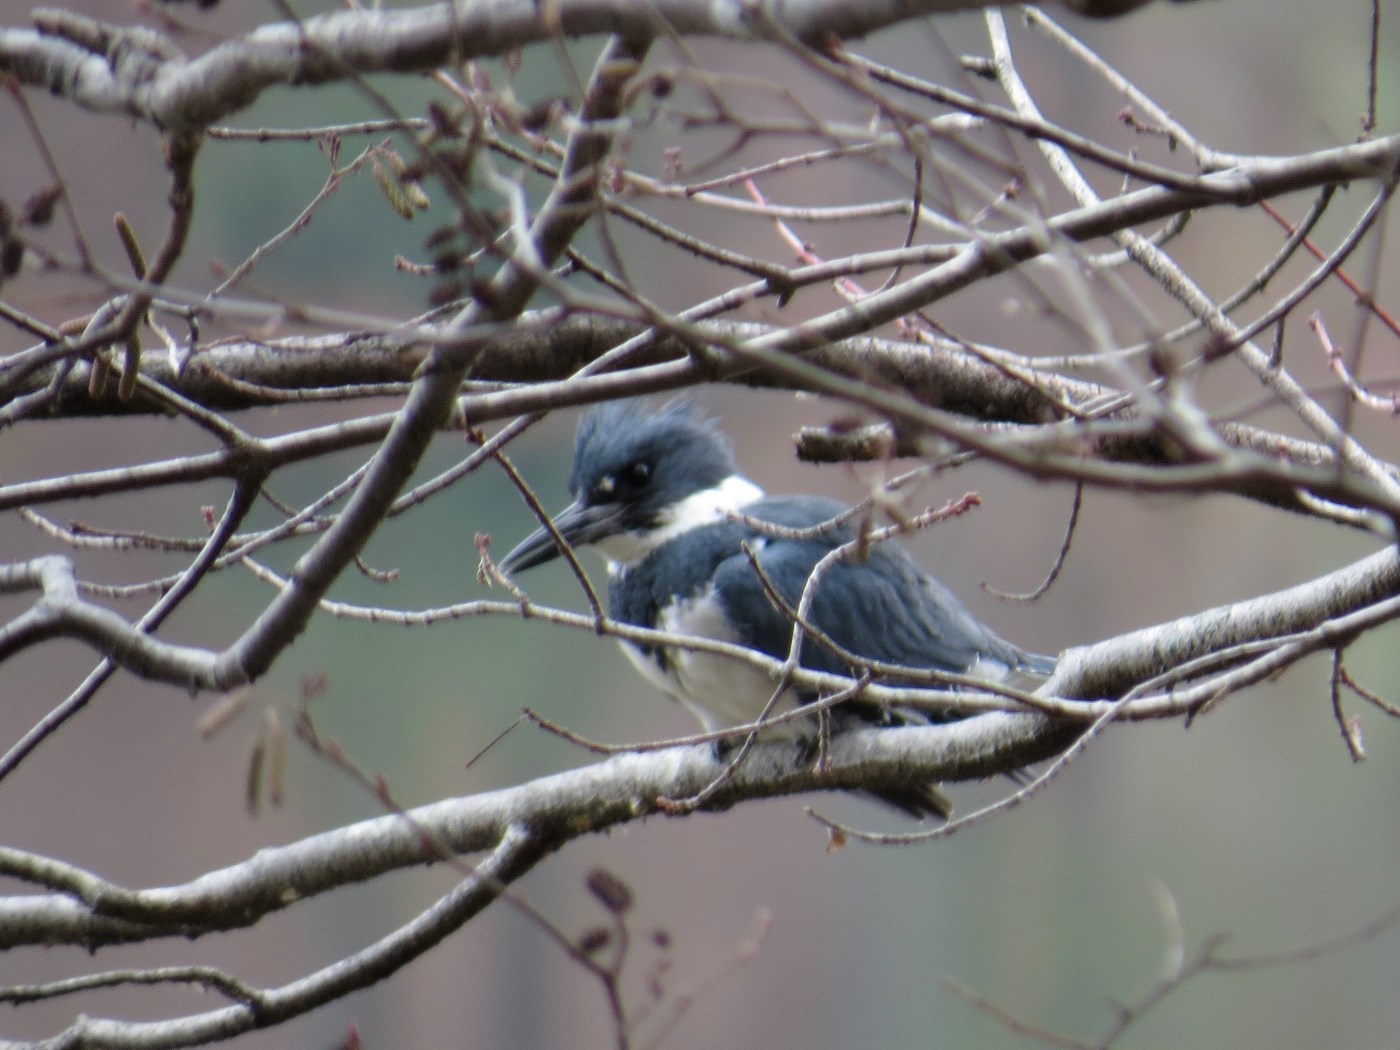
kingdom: Animalia
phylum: Chordata
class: Aves
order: Coraciiformes
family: Alcedinidae
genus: Megaceryle
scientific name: Megaceryle alcyon
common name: Belted kingfisher
